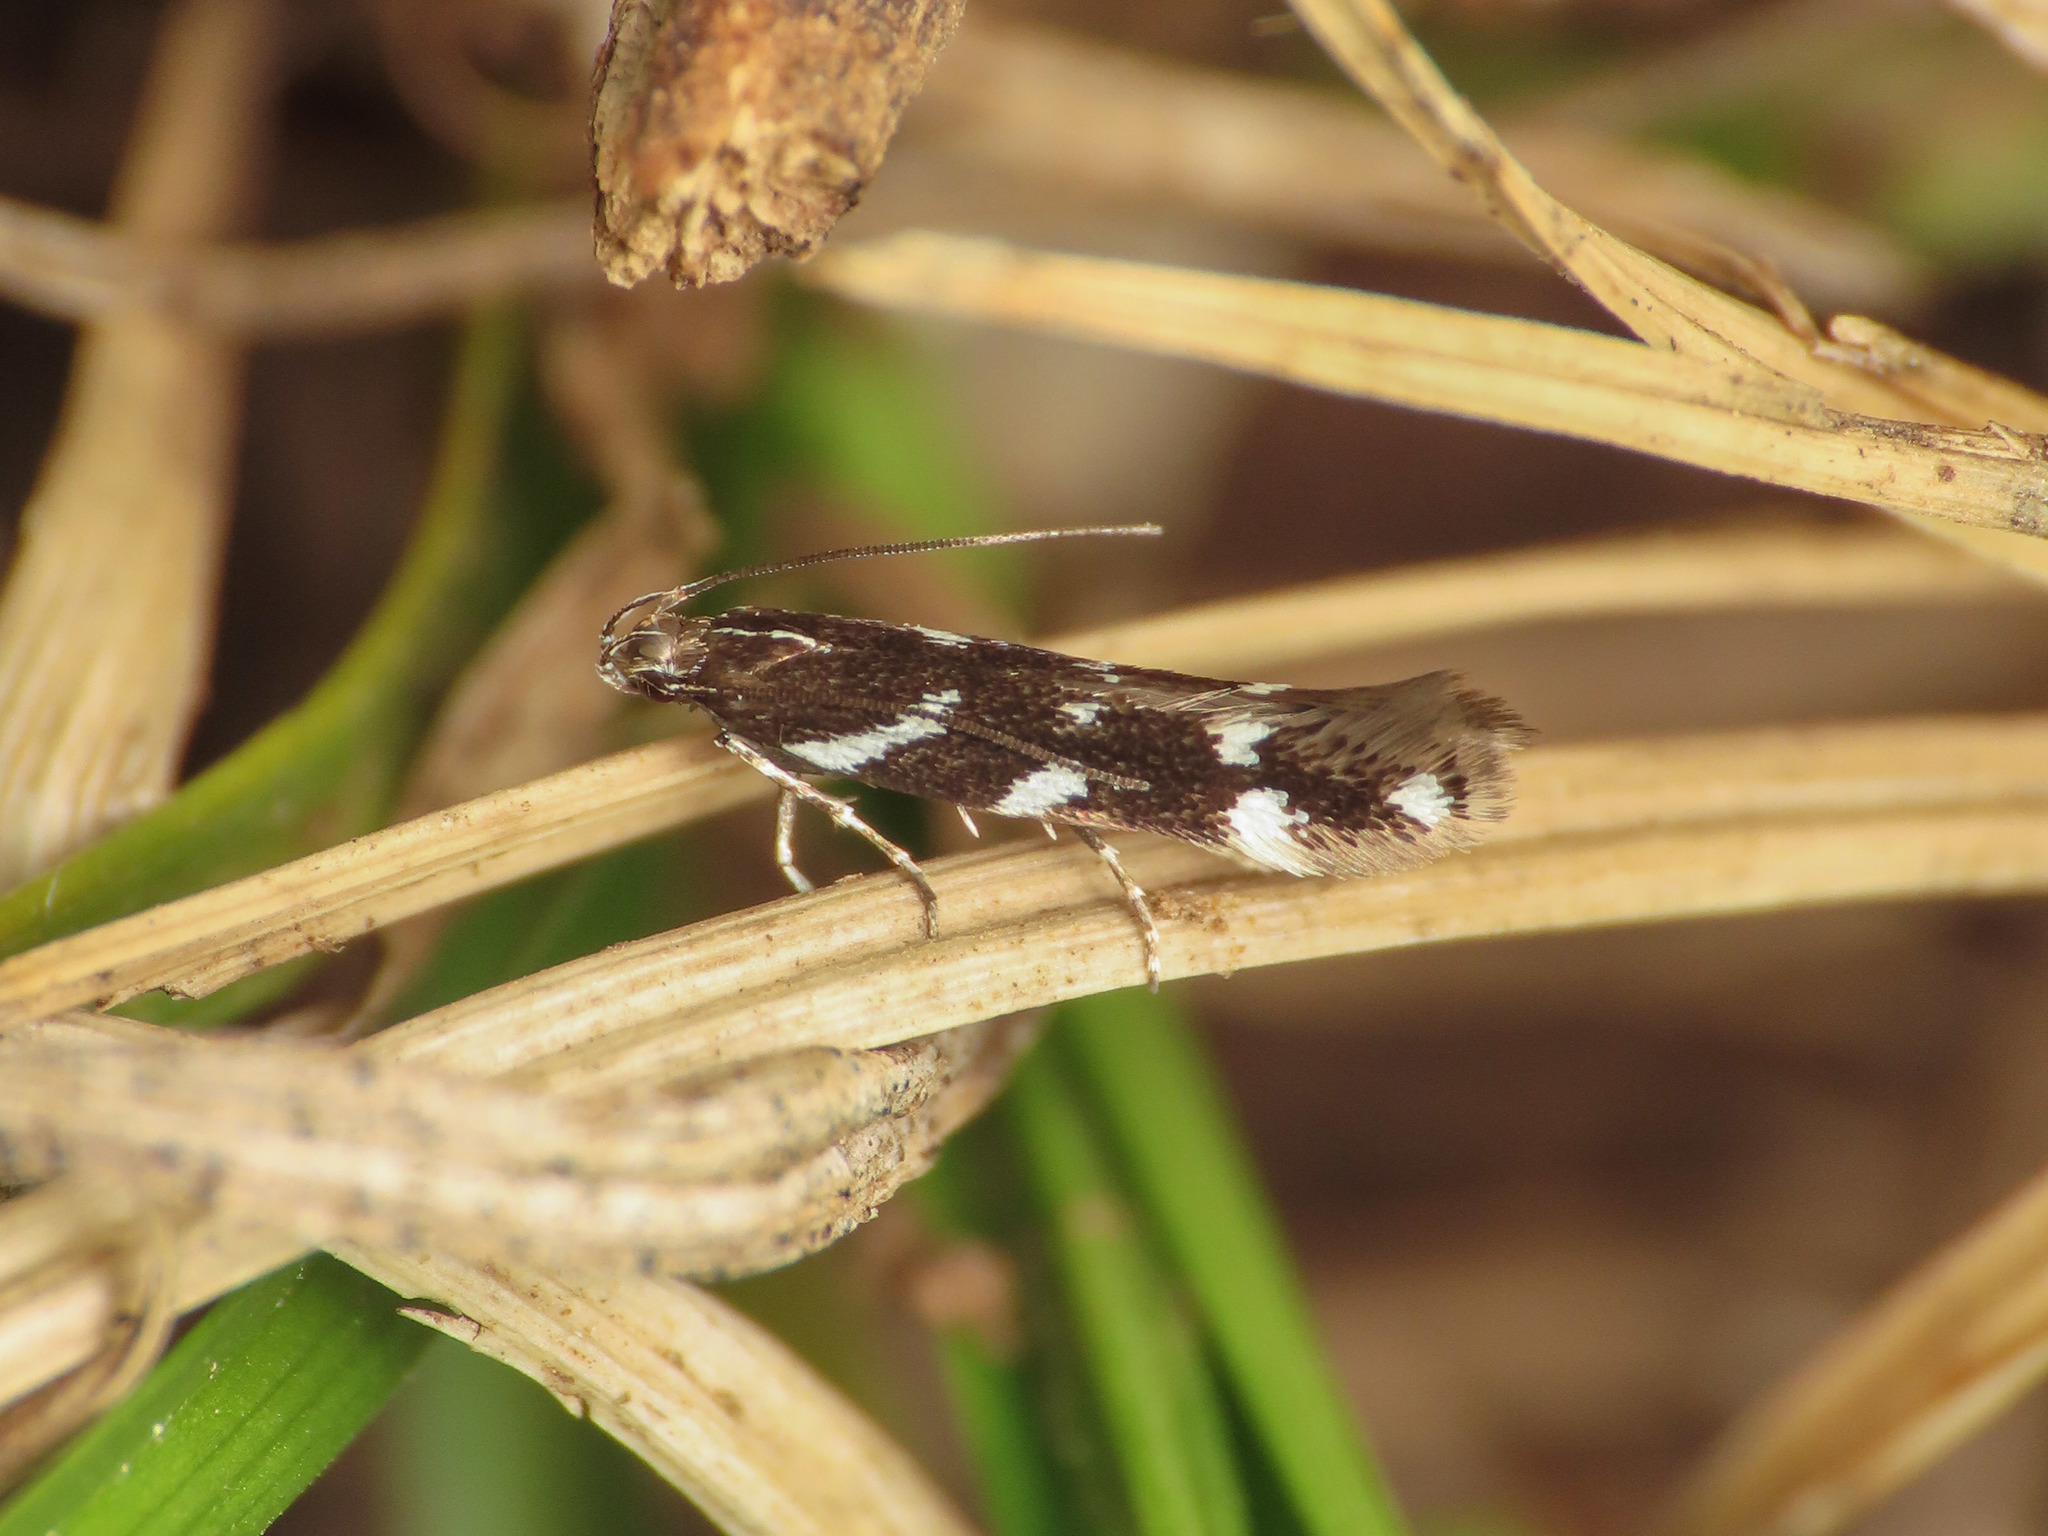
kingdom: Animalia
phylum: Arthropoda
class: Insecta
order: Lepidoptera
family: Cosmopterigidae
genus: Stagmatophora
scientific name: Stagmatophora albiapicella
